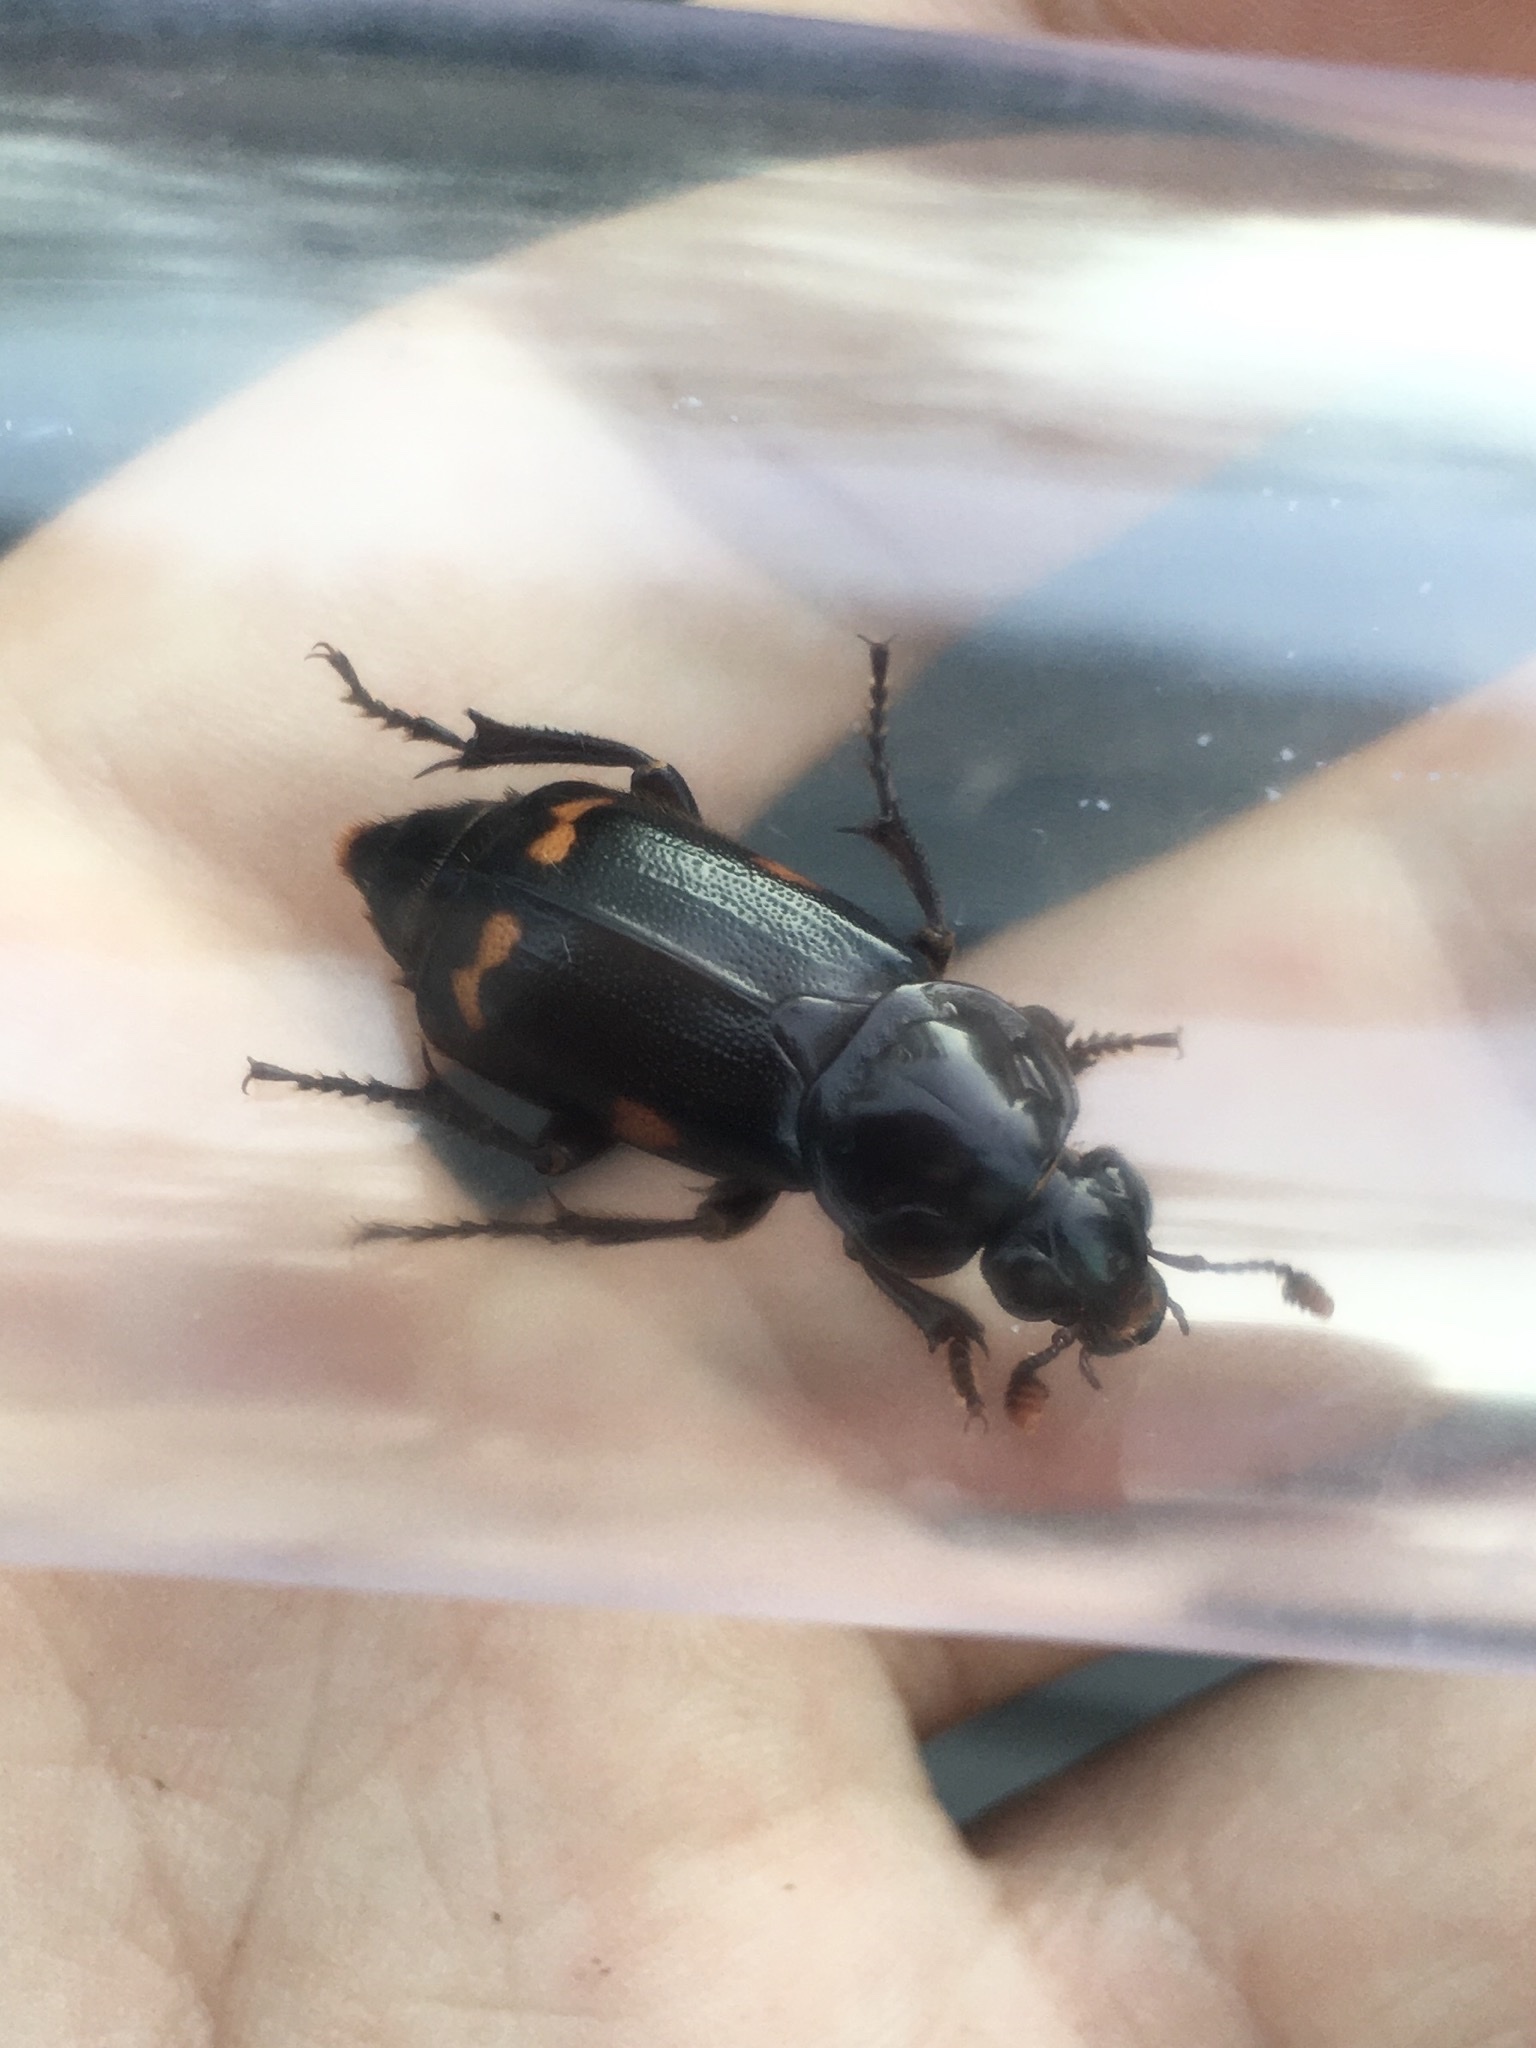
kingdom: Animalia
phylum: Arthropoda
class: Insecta
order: Coleoptera
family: Staphylinidae
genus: Nicrophorus
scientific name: Nicrophorus pustulatus
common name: Pustulated carrion beetle
